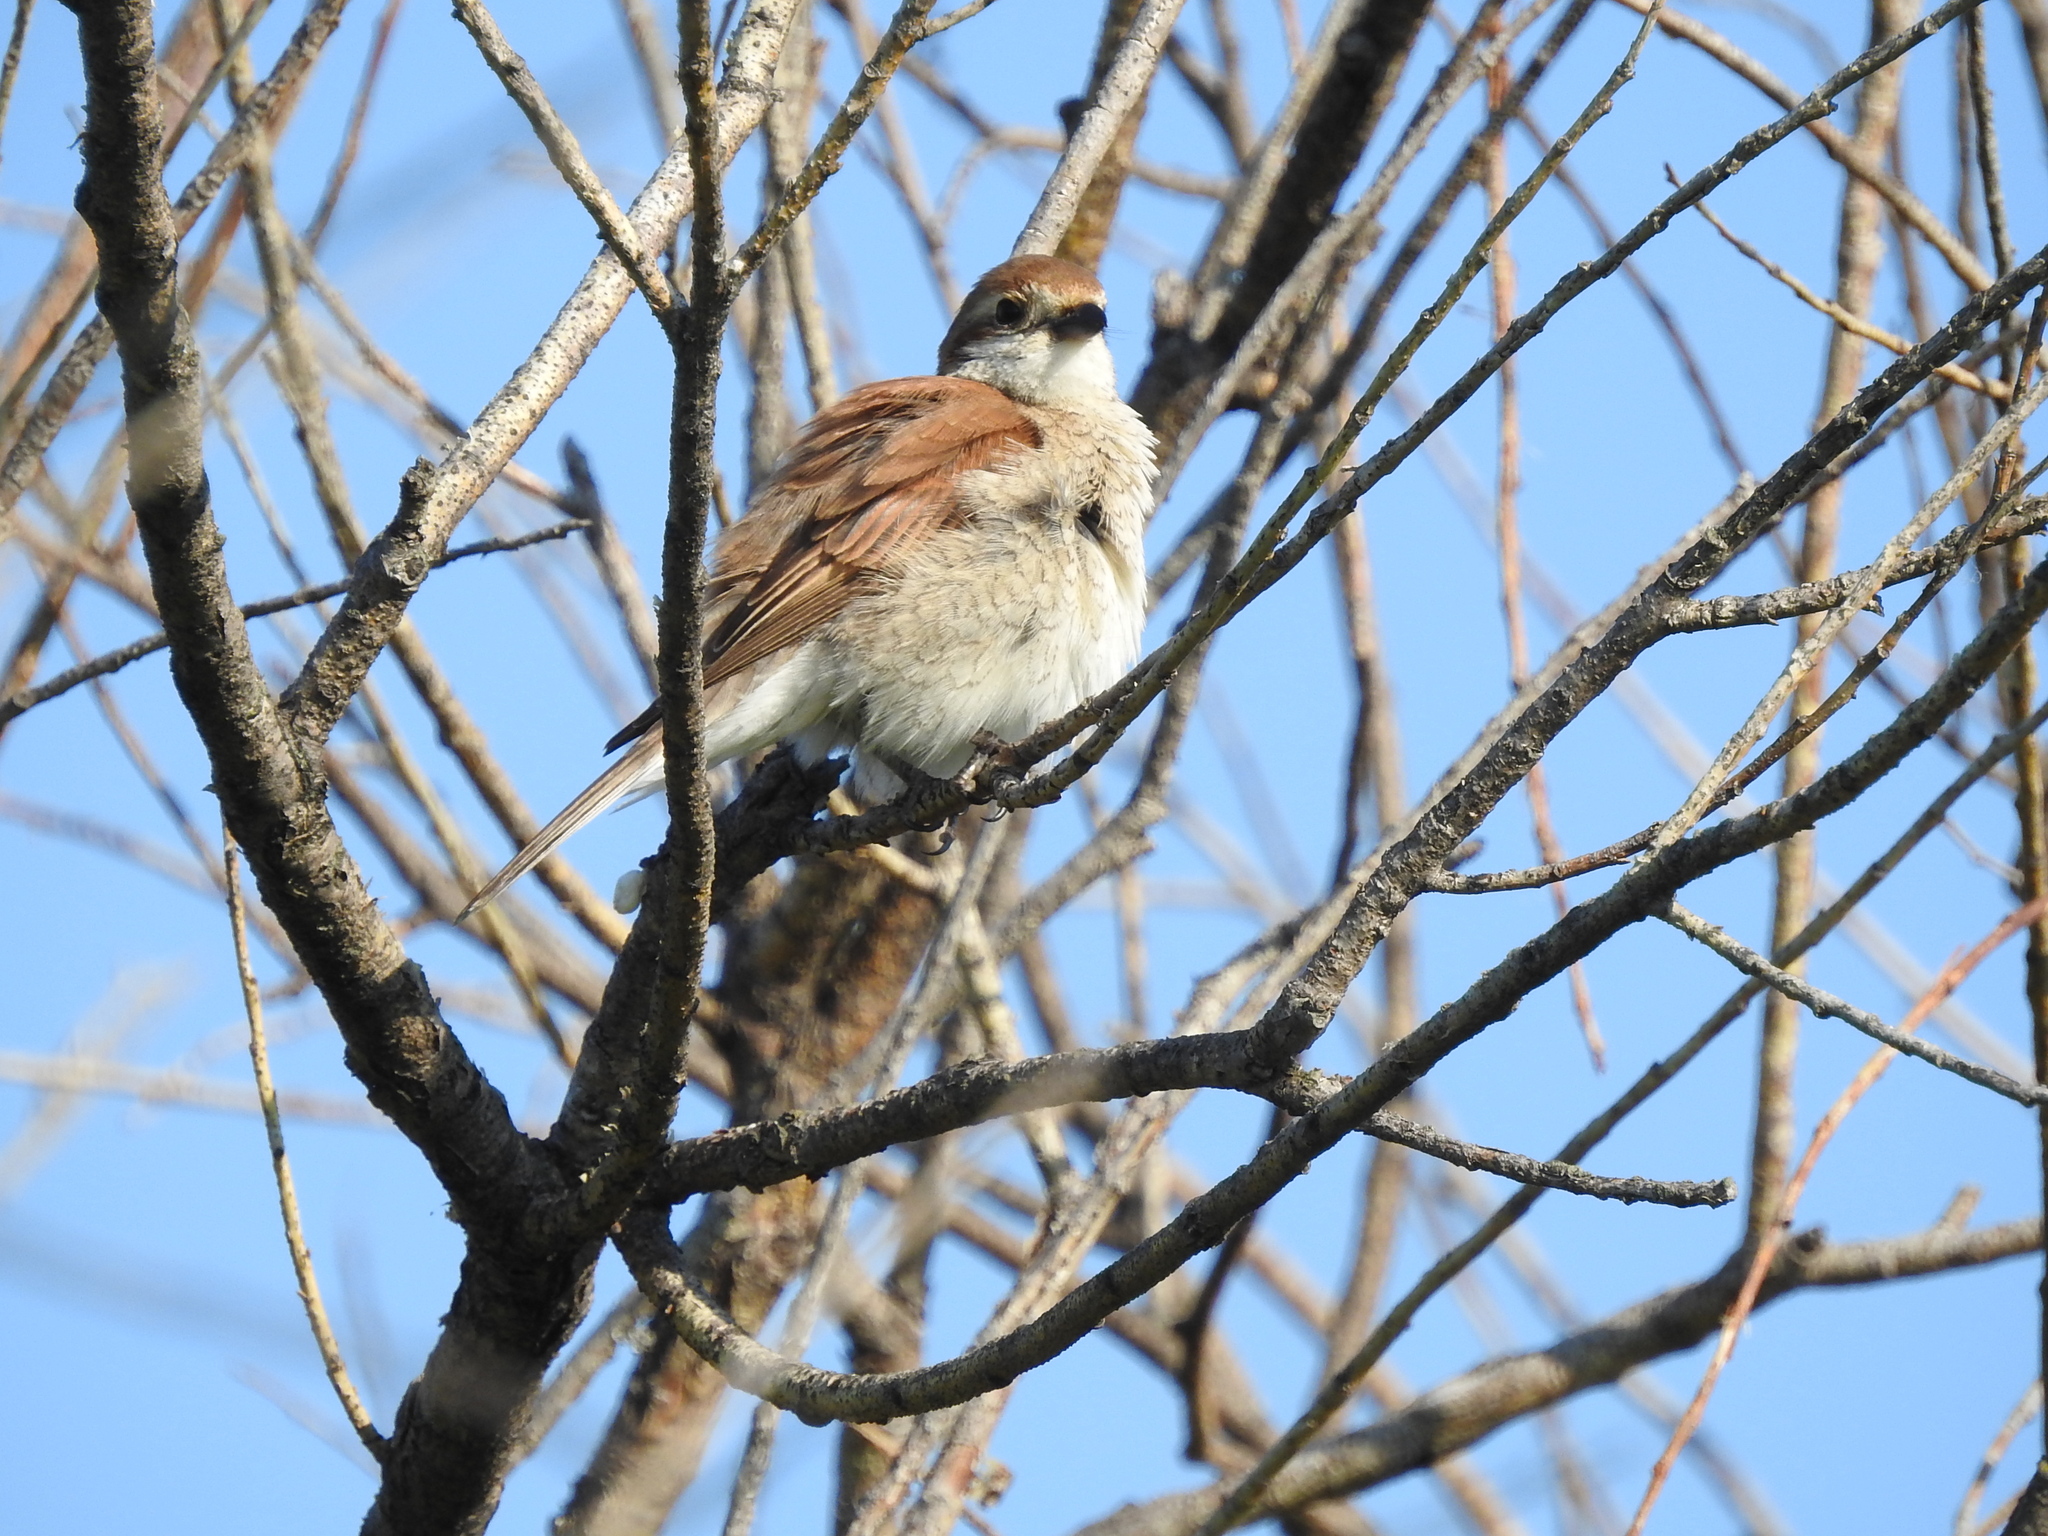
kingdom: Animalia
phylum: Chordata
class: Aves
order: Passeriformes
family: Laniidae
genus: Lanius
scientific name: Lanius collurio
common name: Red-backed shrike
